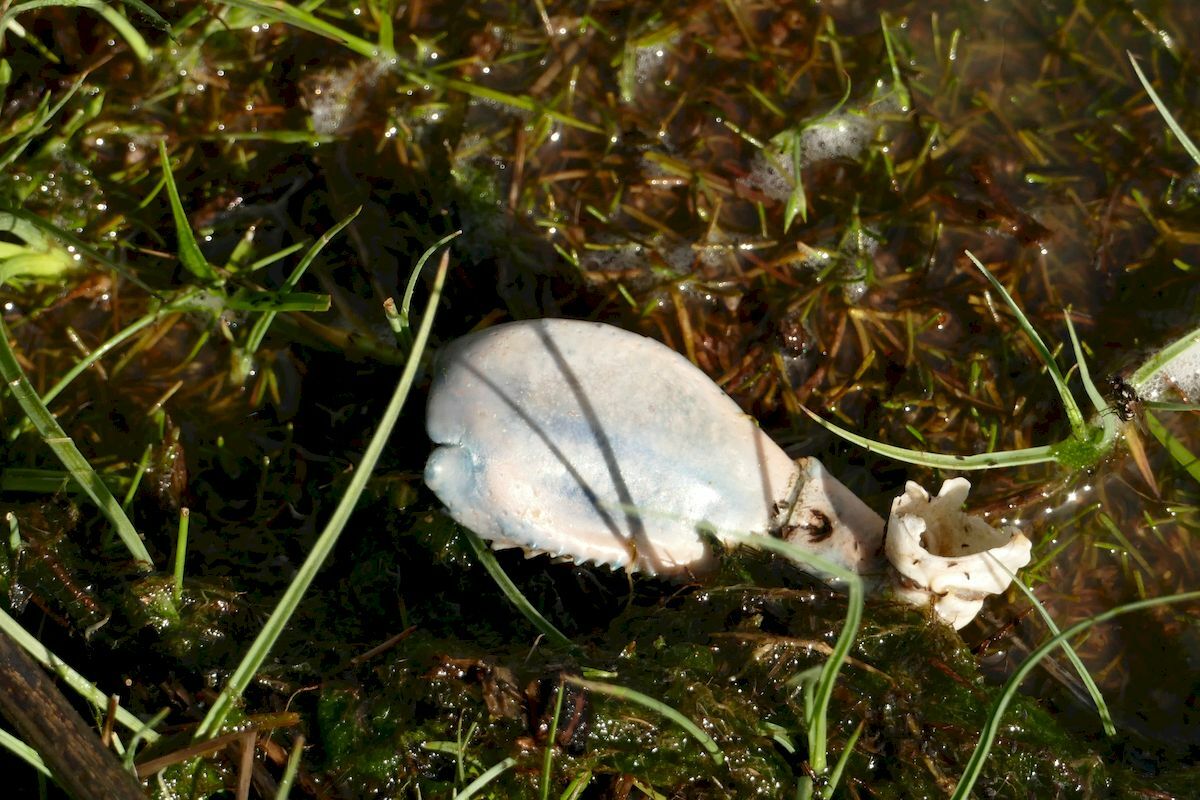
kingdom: Animalia
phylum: Arthropoda
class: Malacostraca
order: Decapoda
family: Parastacidae
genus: Cherax
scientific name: Cherax destructor
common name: Yabby
